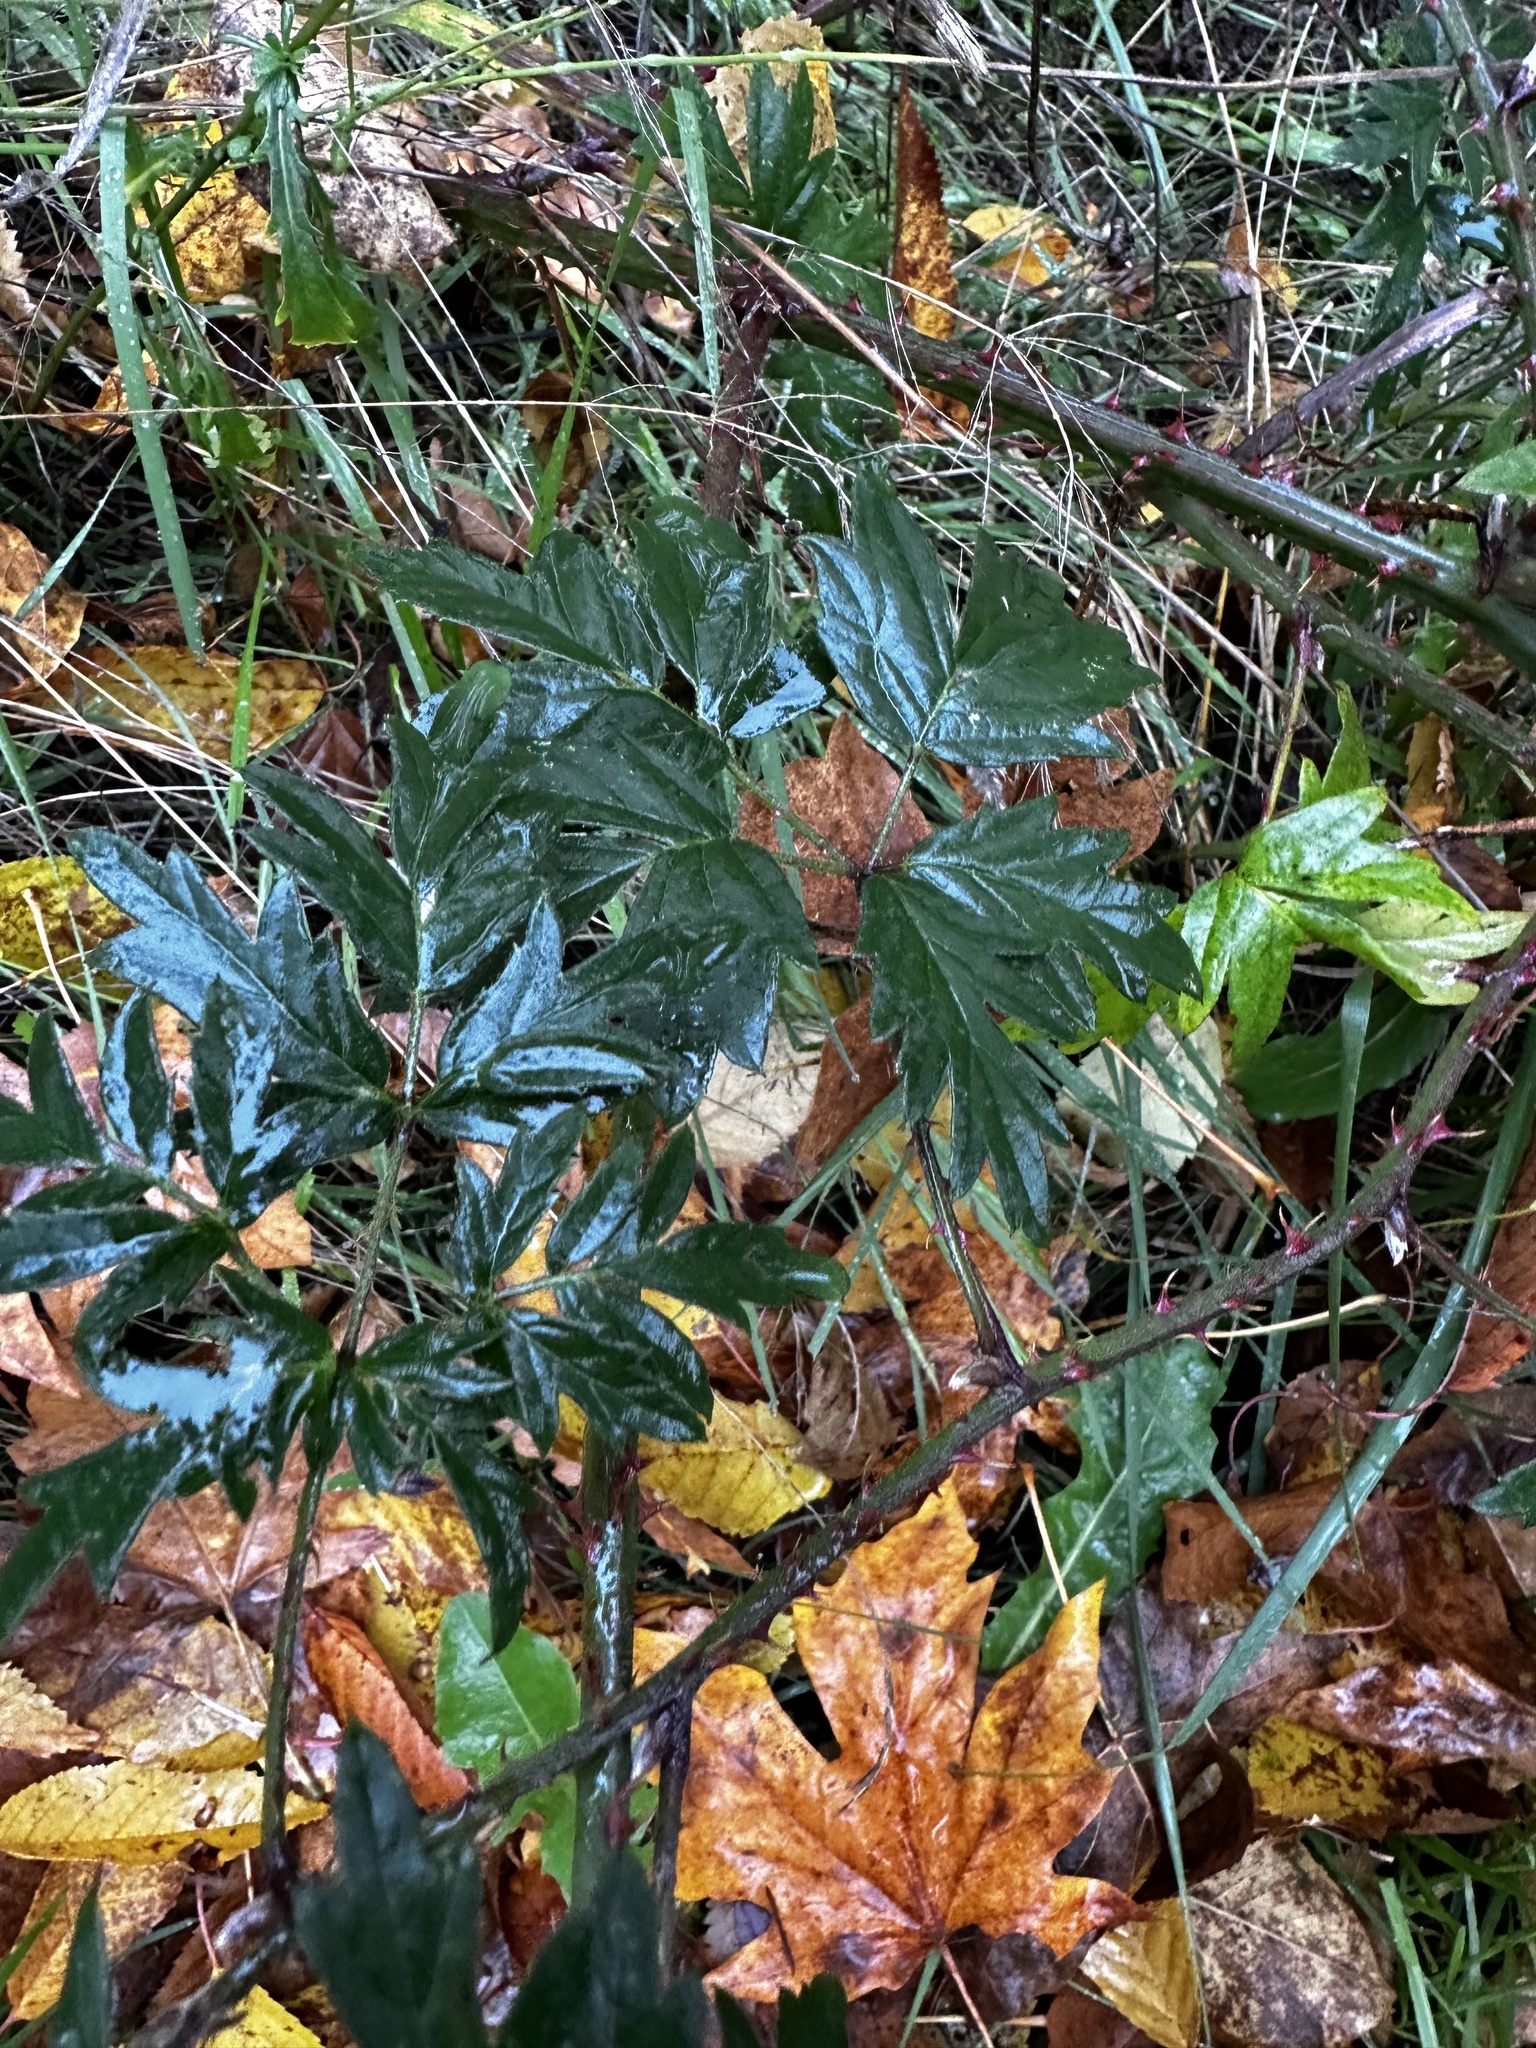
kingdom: Plantae
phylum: Tracheophyta
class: Magnoliopsida
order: Rosales
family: Rosaceae
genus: Rubus
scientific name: Rubus laciniatus
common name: Evergreen blackberry
